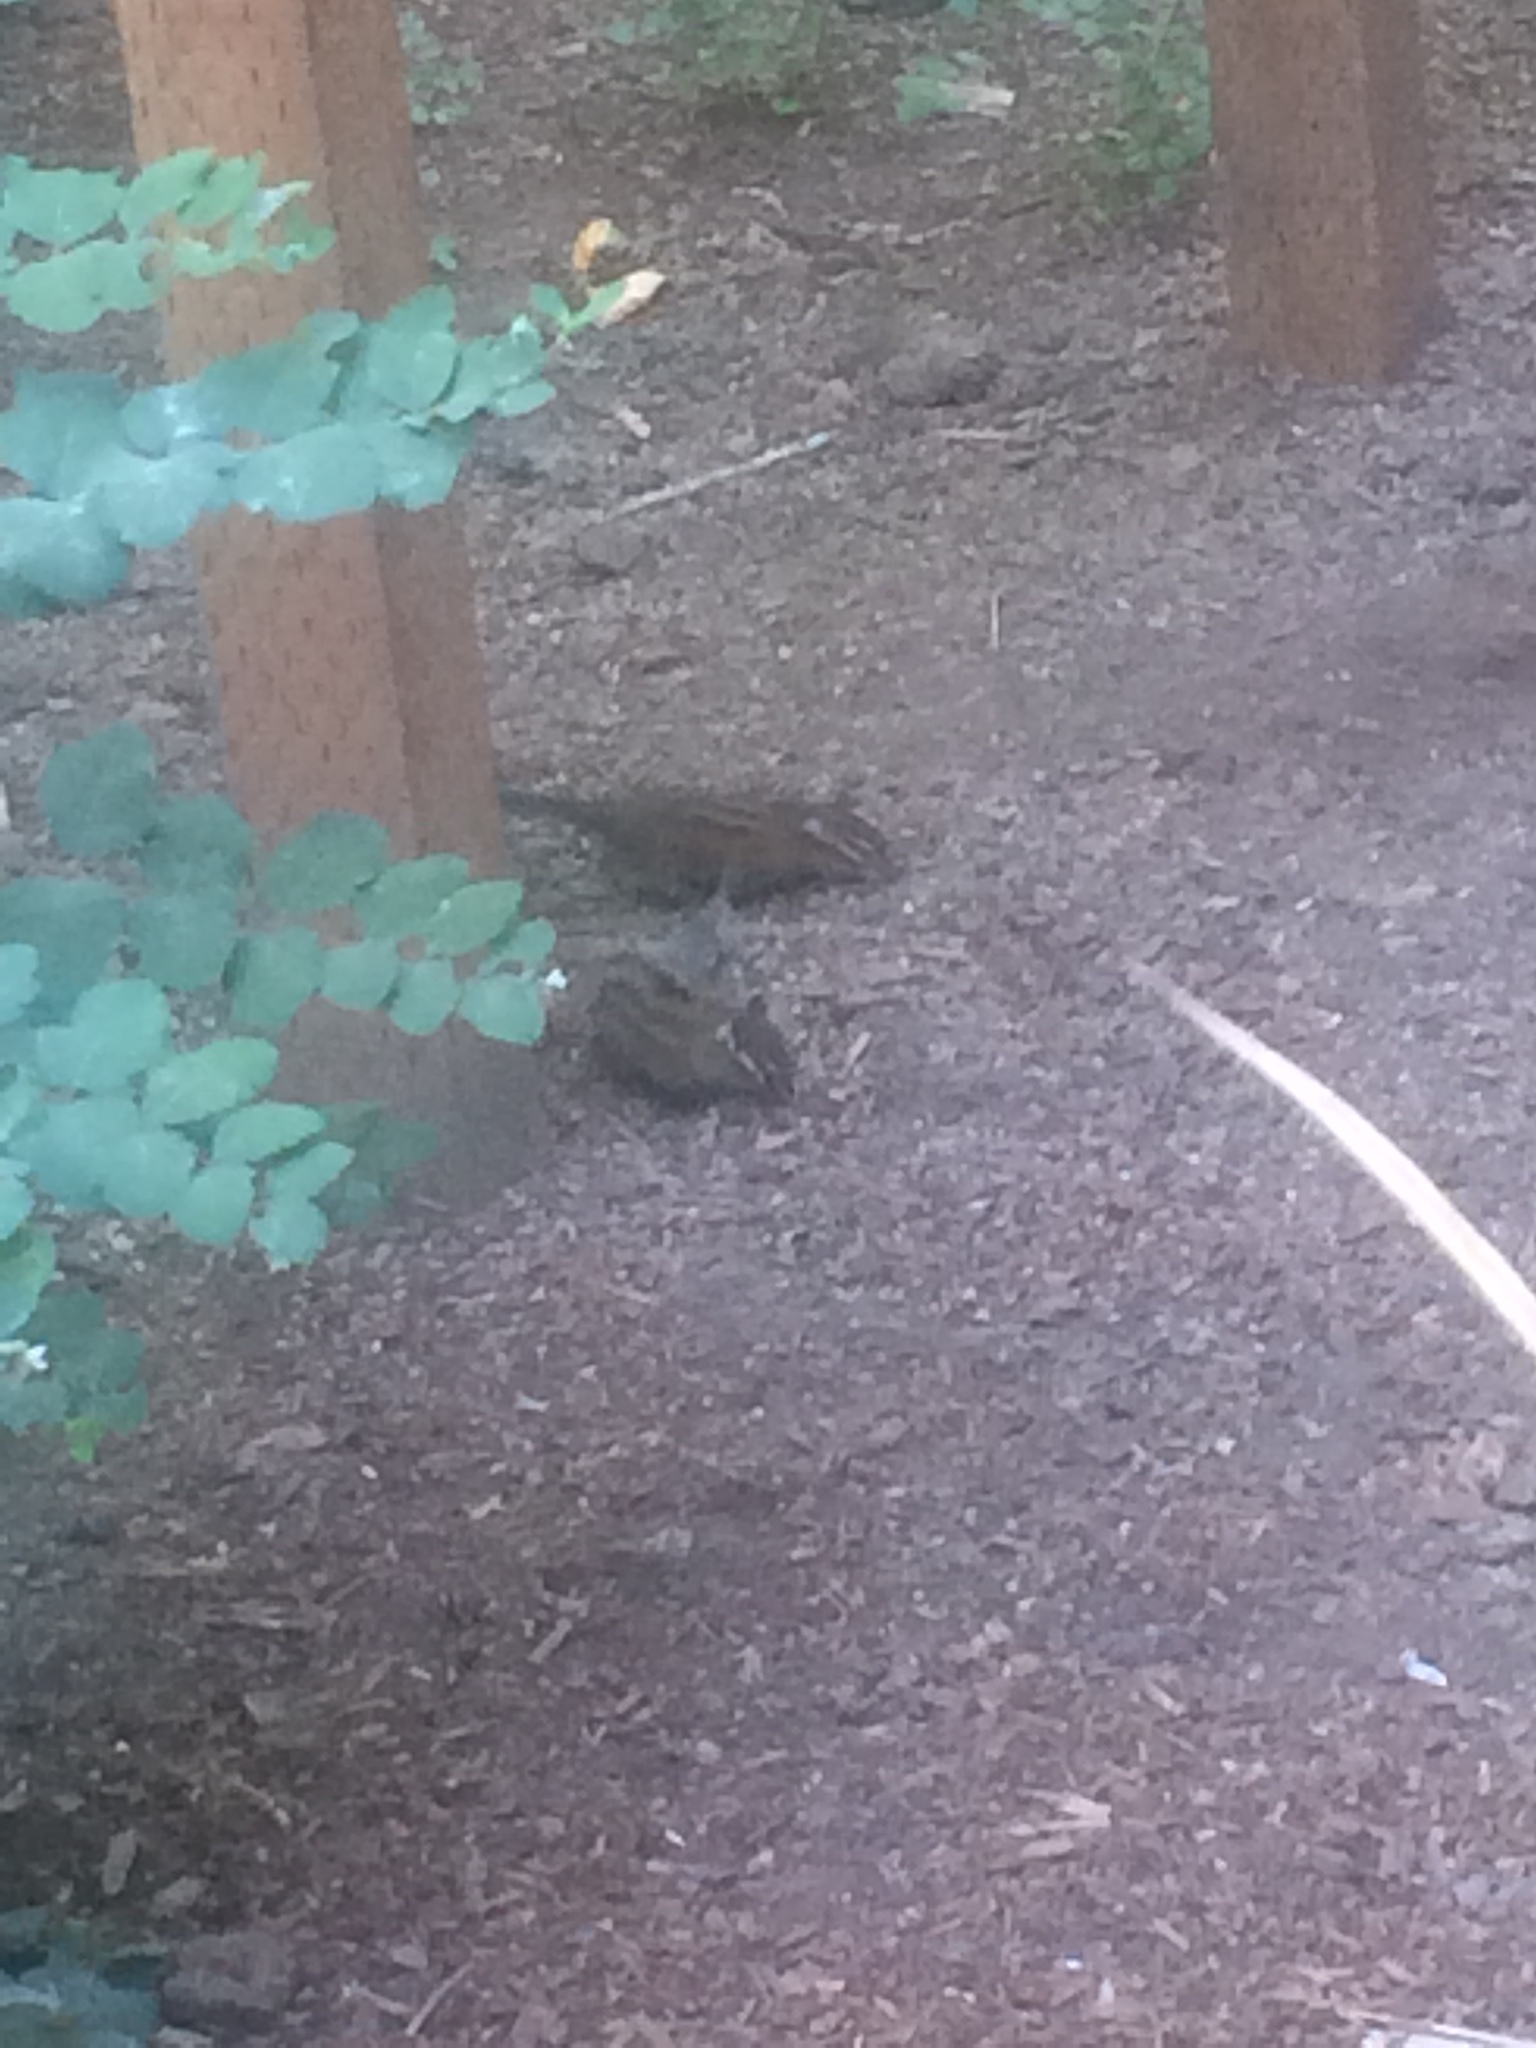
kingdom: Animalia
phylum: Chordata
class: Mammalia
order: Rodentia
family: Sciuridae
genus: Tamias
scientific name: Tamias townsendii
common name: Townsend's chipmunk
